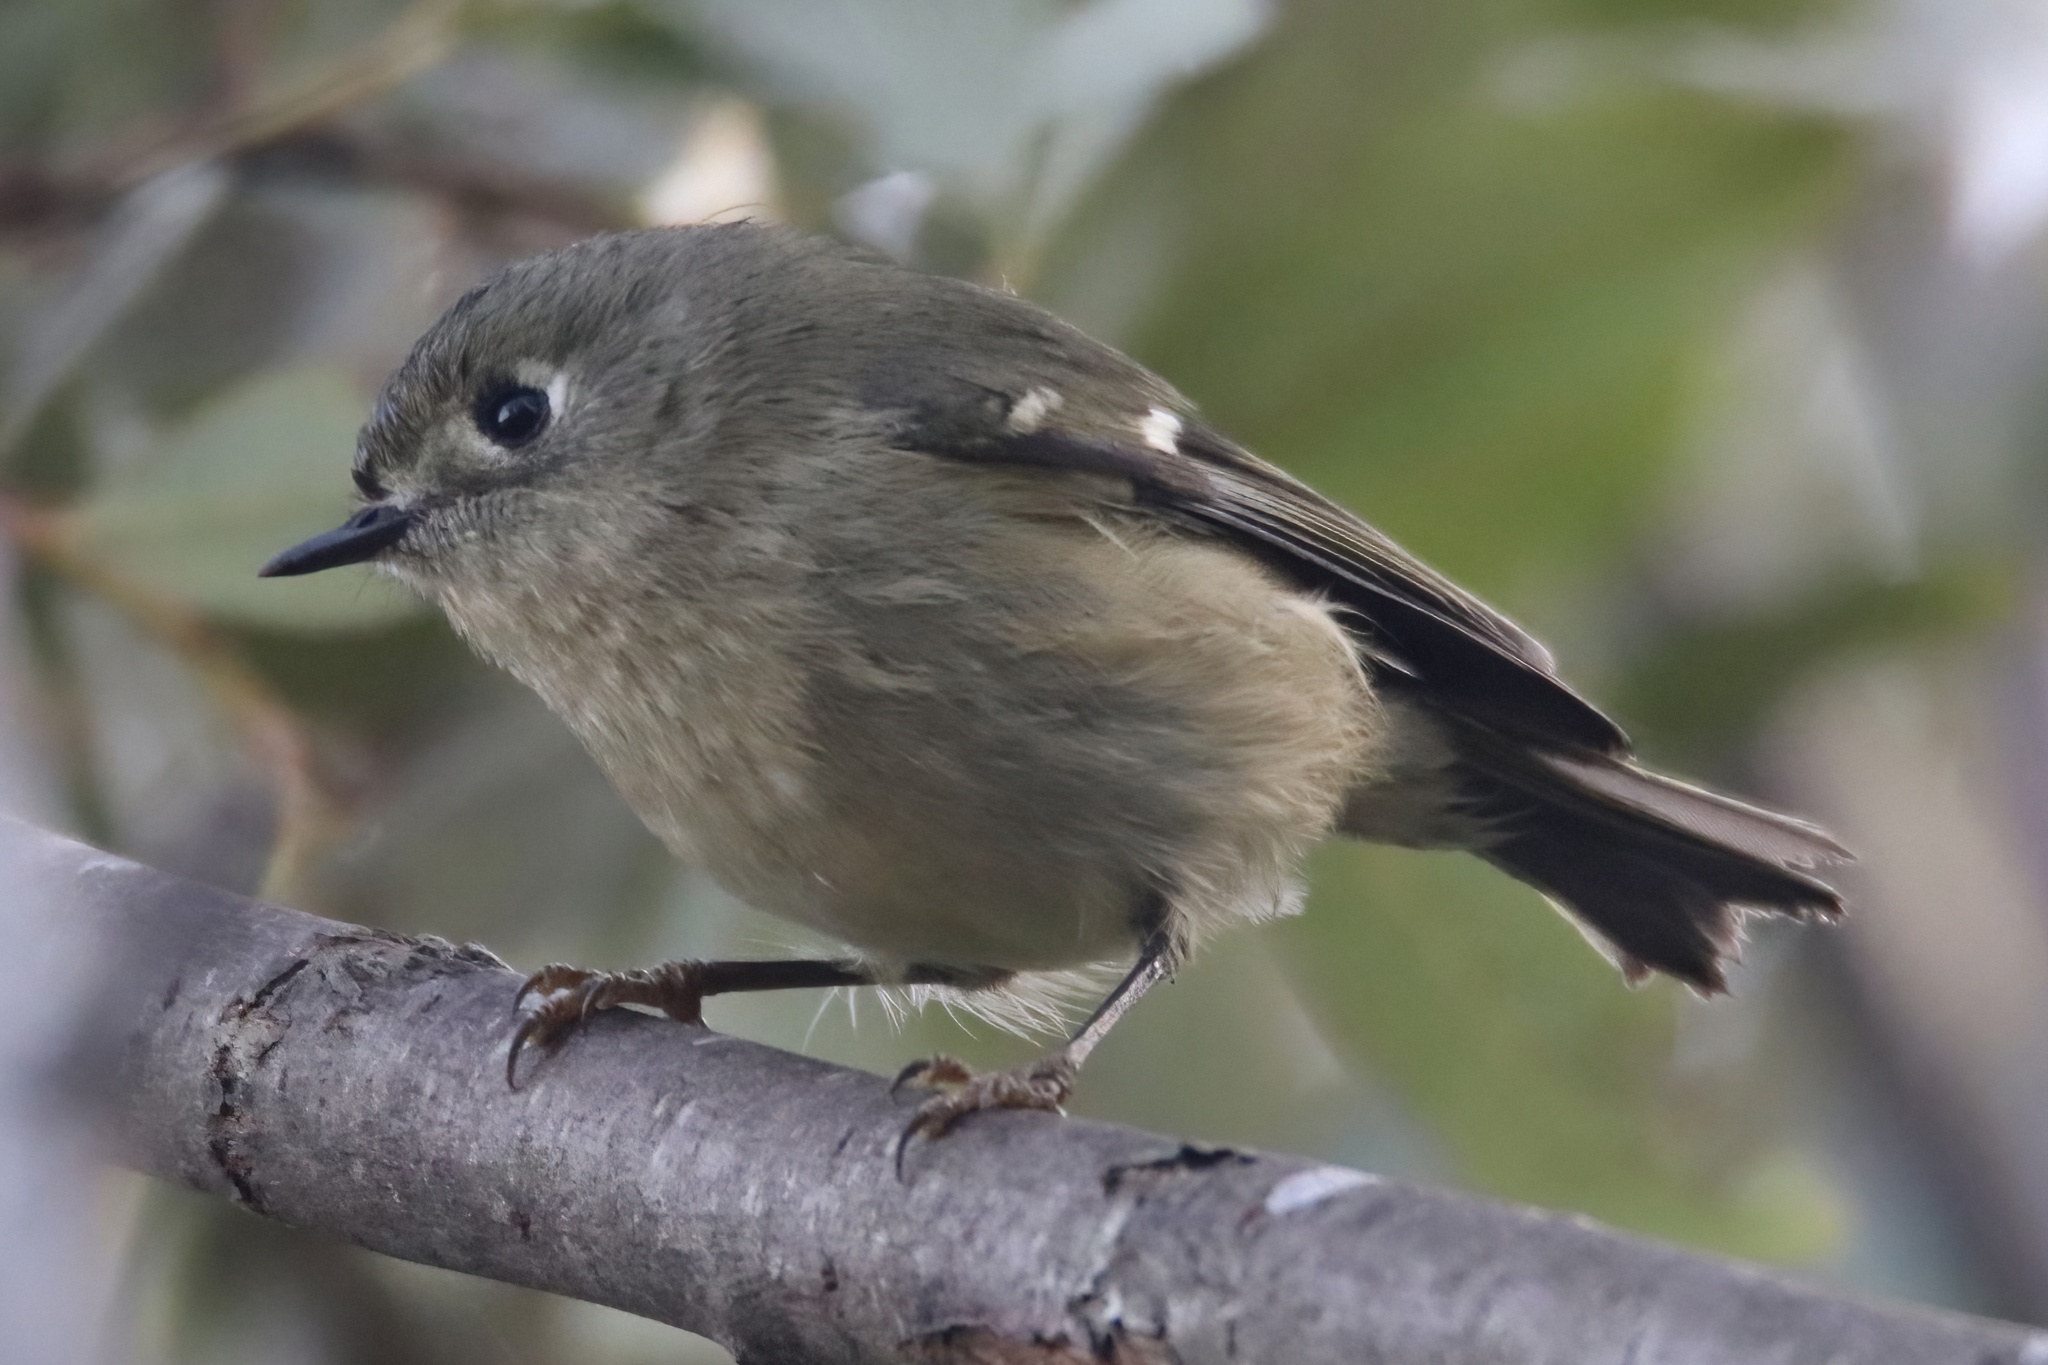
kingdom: Animalia
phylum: Chordata
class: Aves
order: Passeriformes
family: Regulidae
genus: Regulus
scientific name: Regulus calendula
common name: Ruby-crowned kinglet
